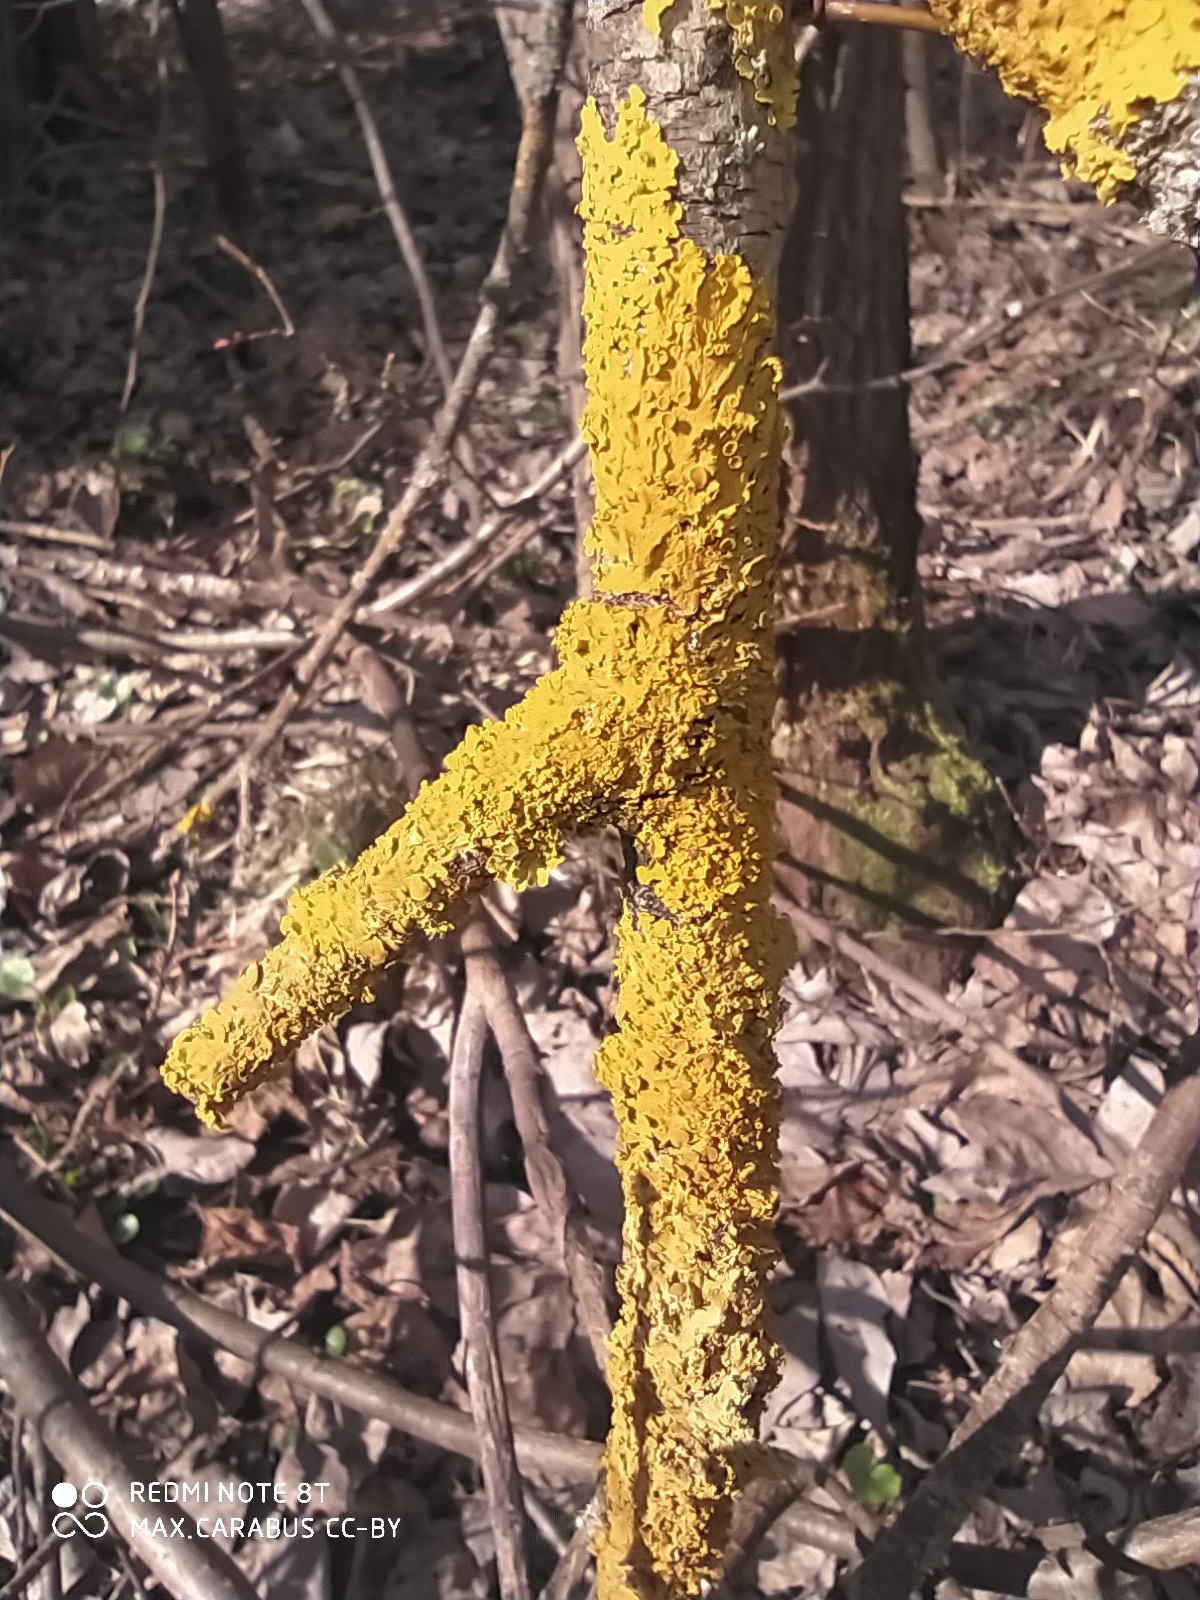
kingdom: Fungi
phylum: Ascomycota
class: Lecanoromycetes
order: Teloschistales
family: Teloschistaceae
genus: Xanthoria
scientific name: Xanthoria parietina
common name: Common orange lichen
